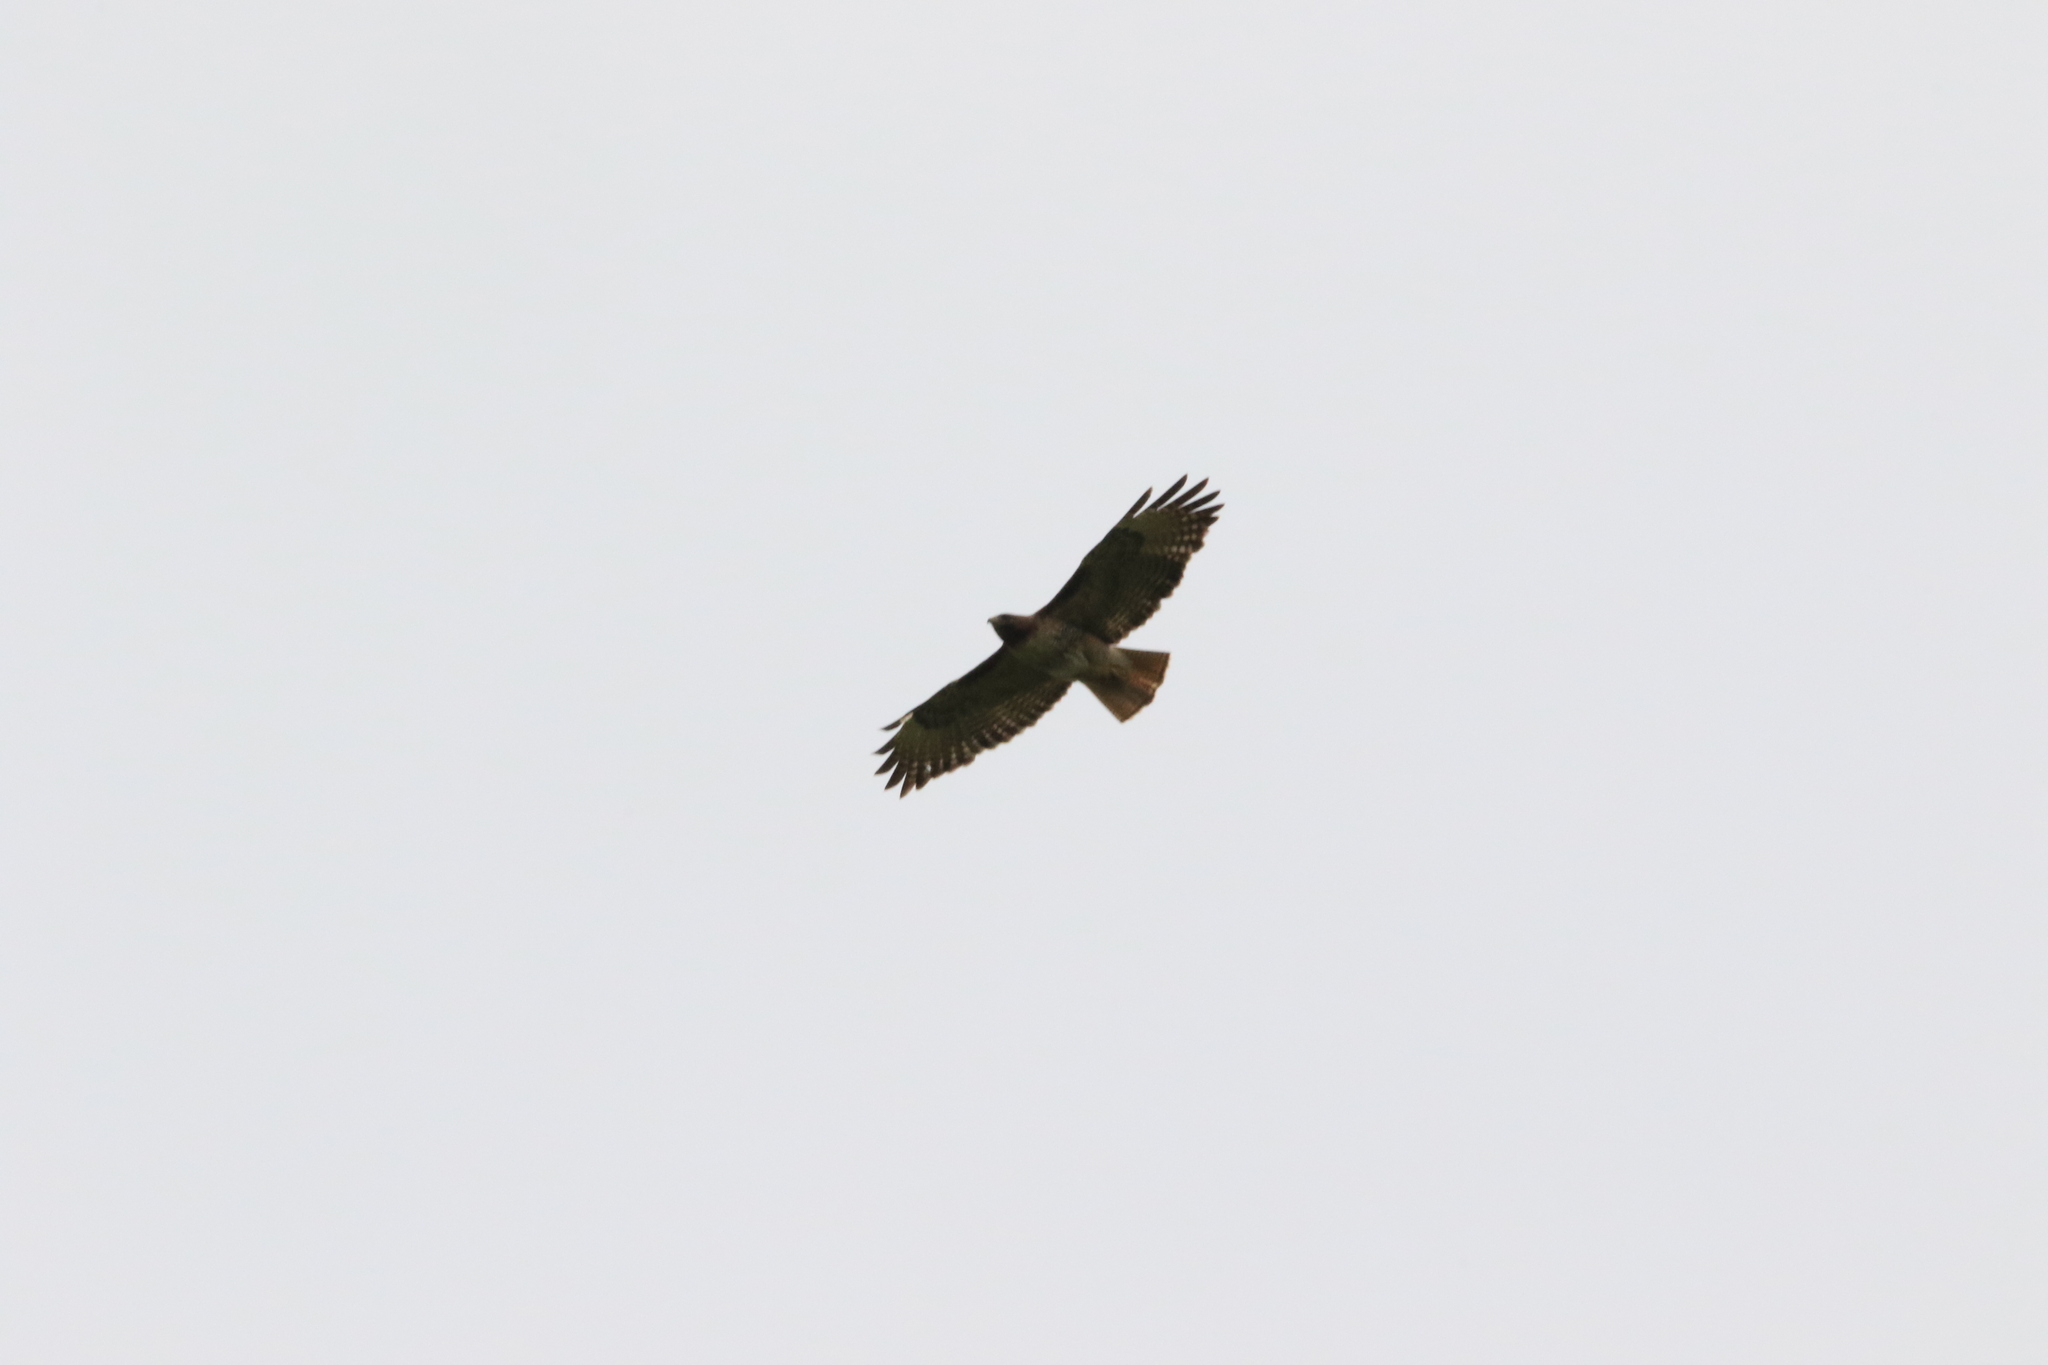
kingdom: Animalia
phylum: Chordata
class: Aves
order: Accipitriformes
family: Accipitridae
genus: Buteo
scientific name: Buteo jamaicensis
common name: Red-tailed hawk
